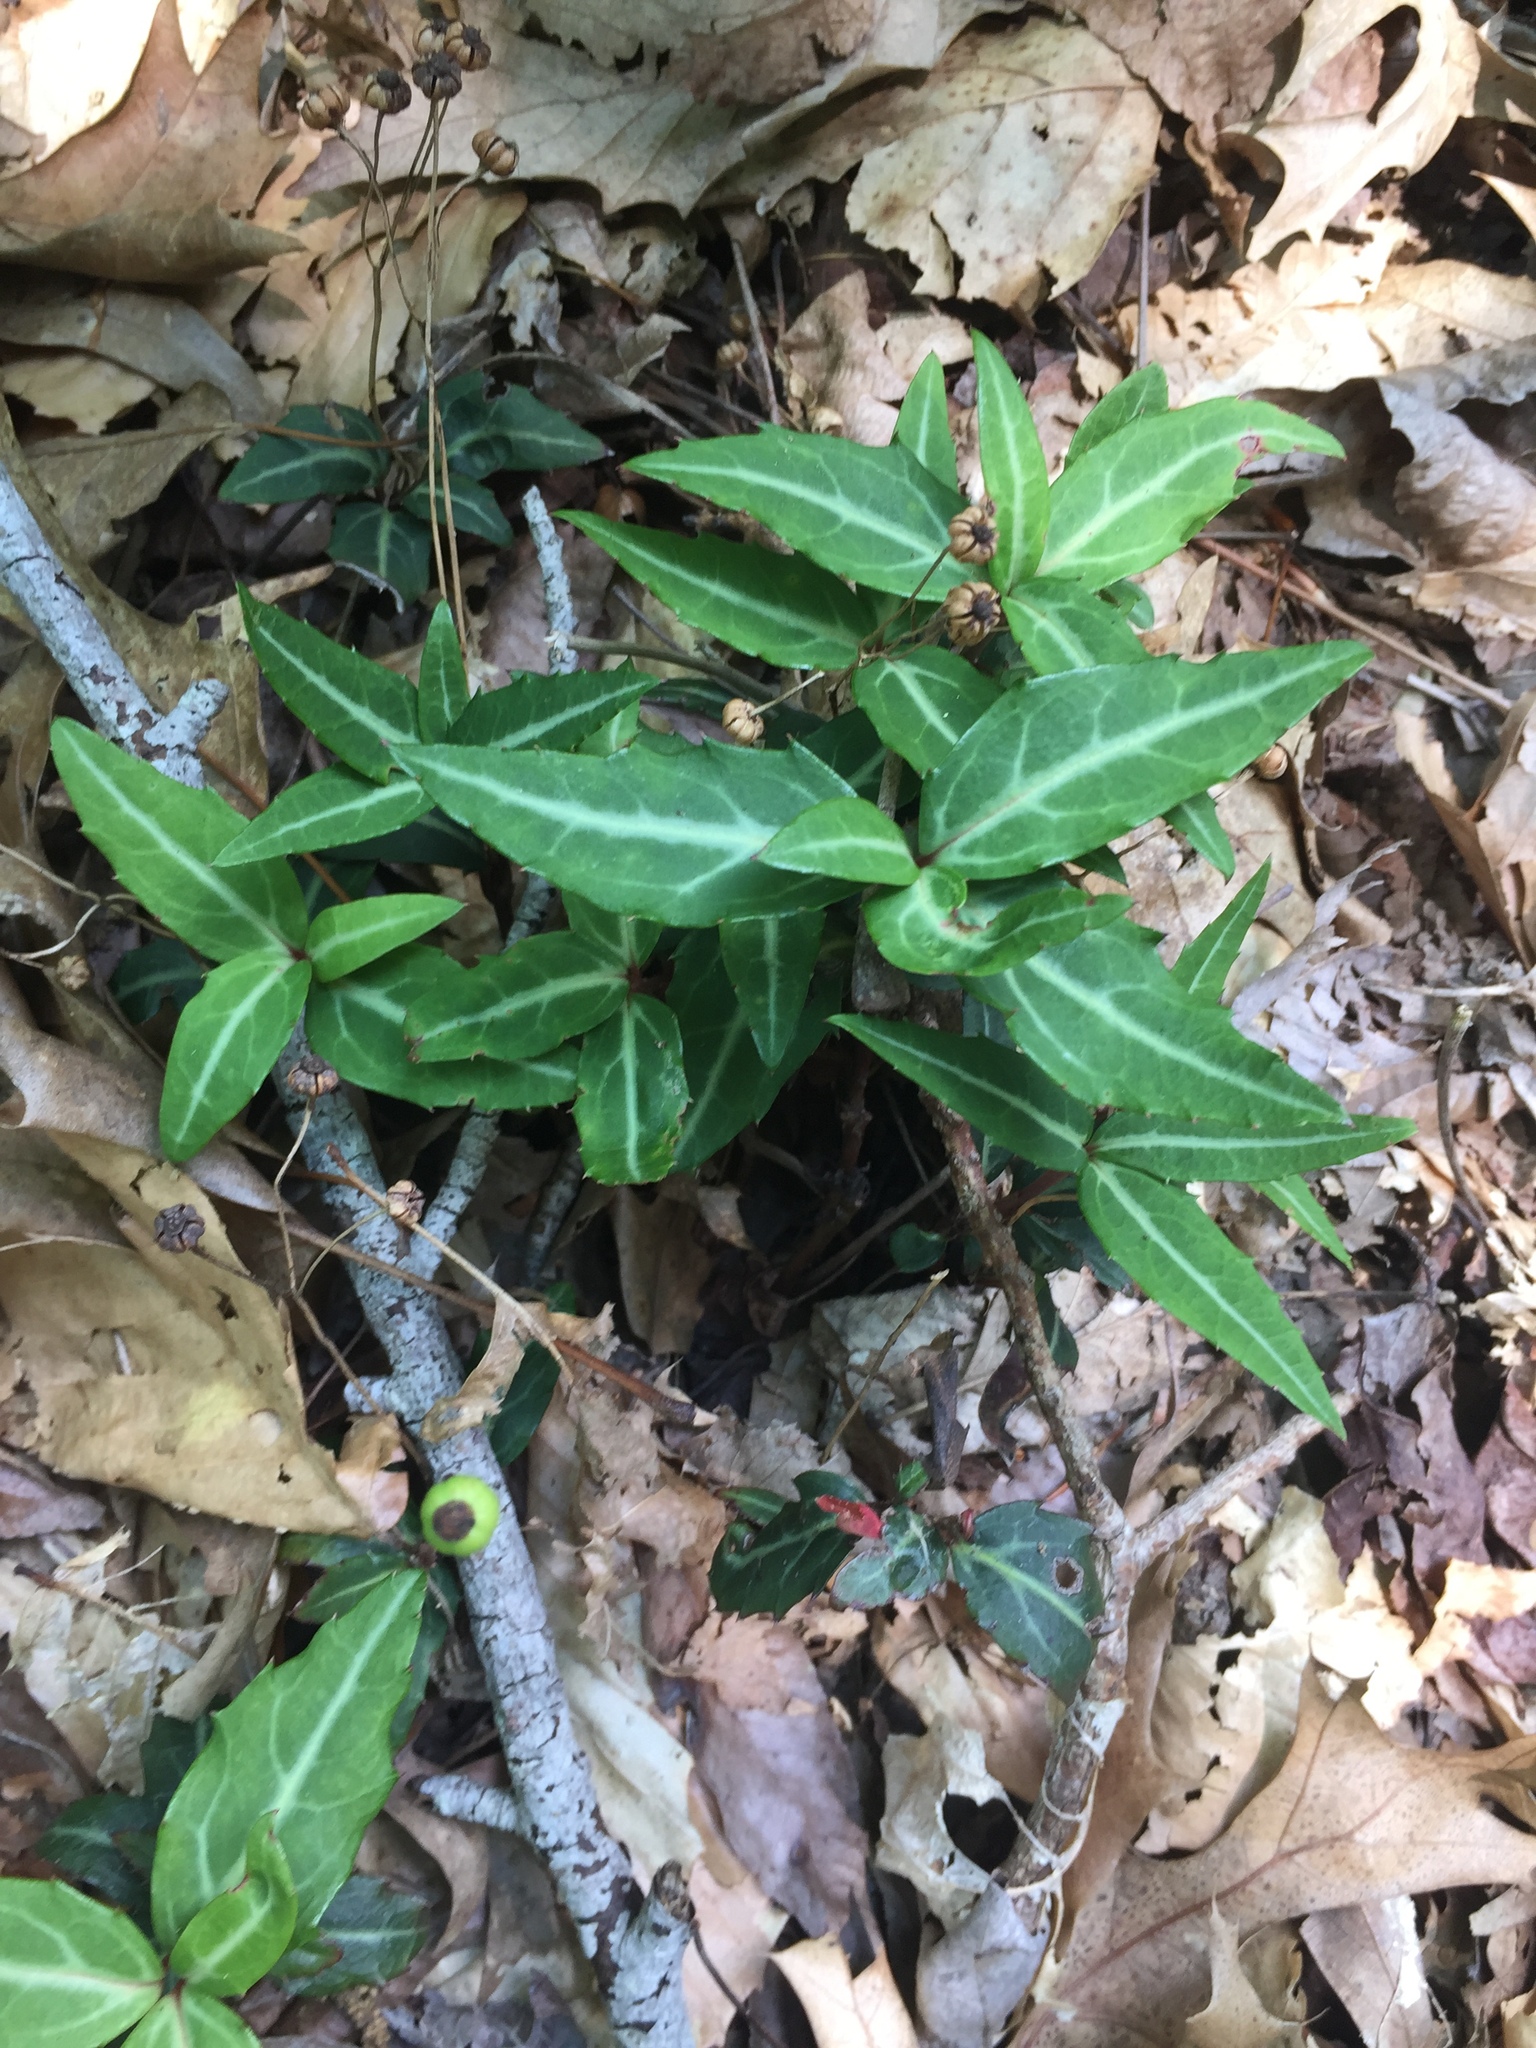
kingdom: Plantae
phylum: Tracheophyta
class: Magnoliopsida
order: Ericales
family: Ericaceae
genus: Chimaphila
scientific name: Chimaphila maculata
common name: Spotted pipsissewa
